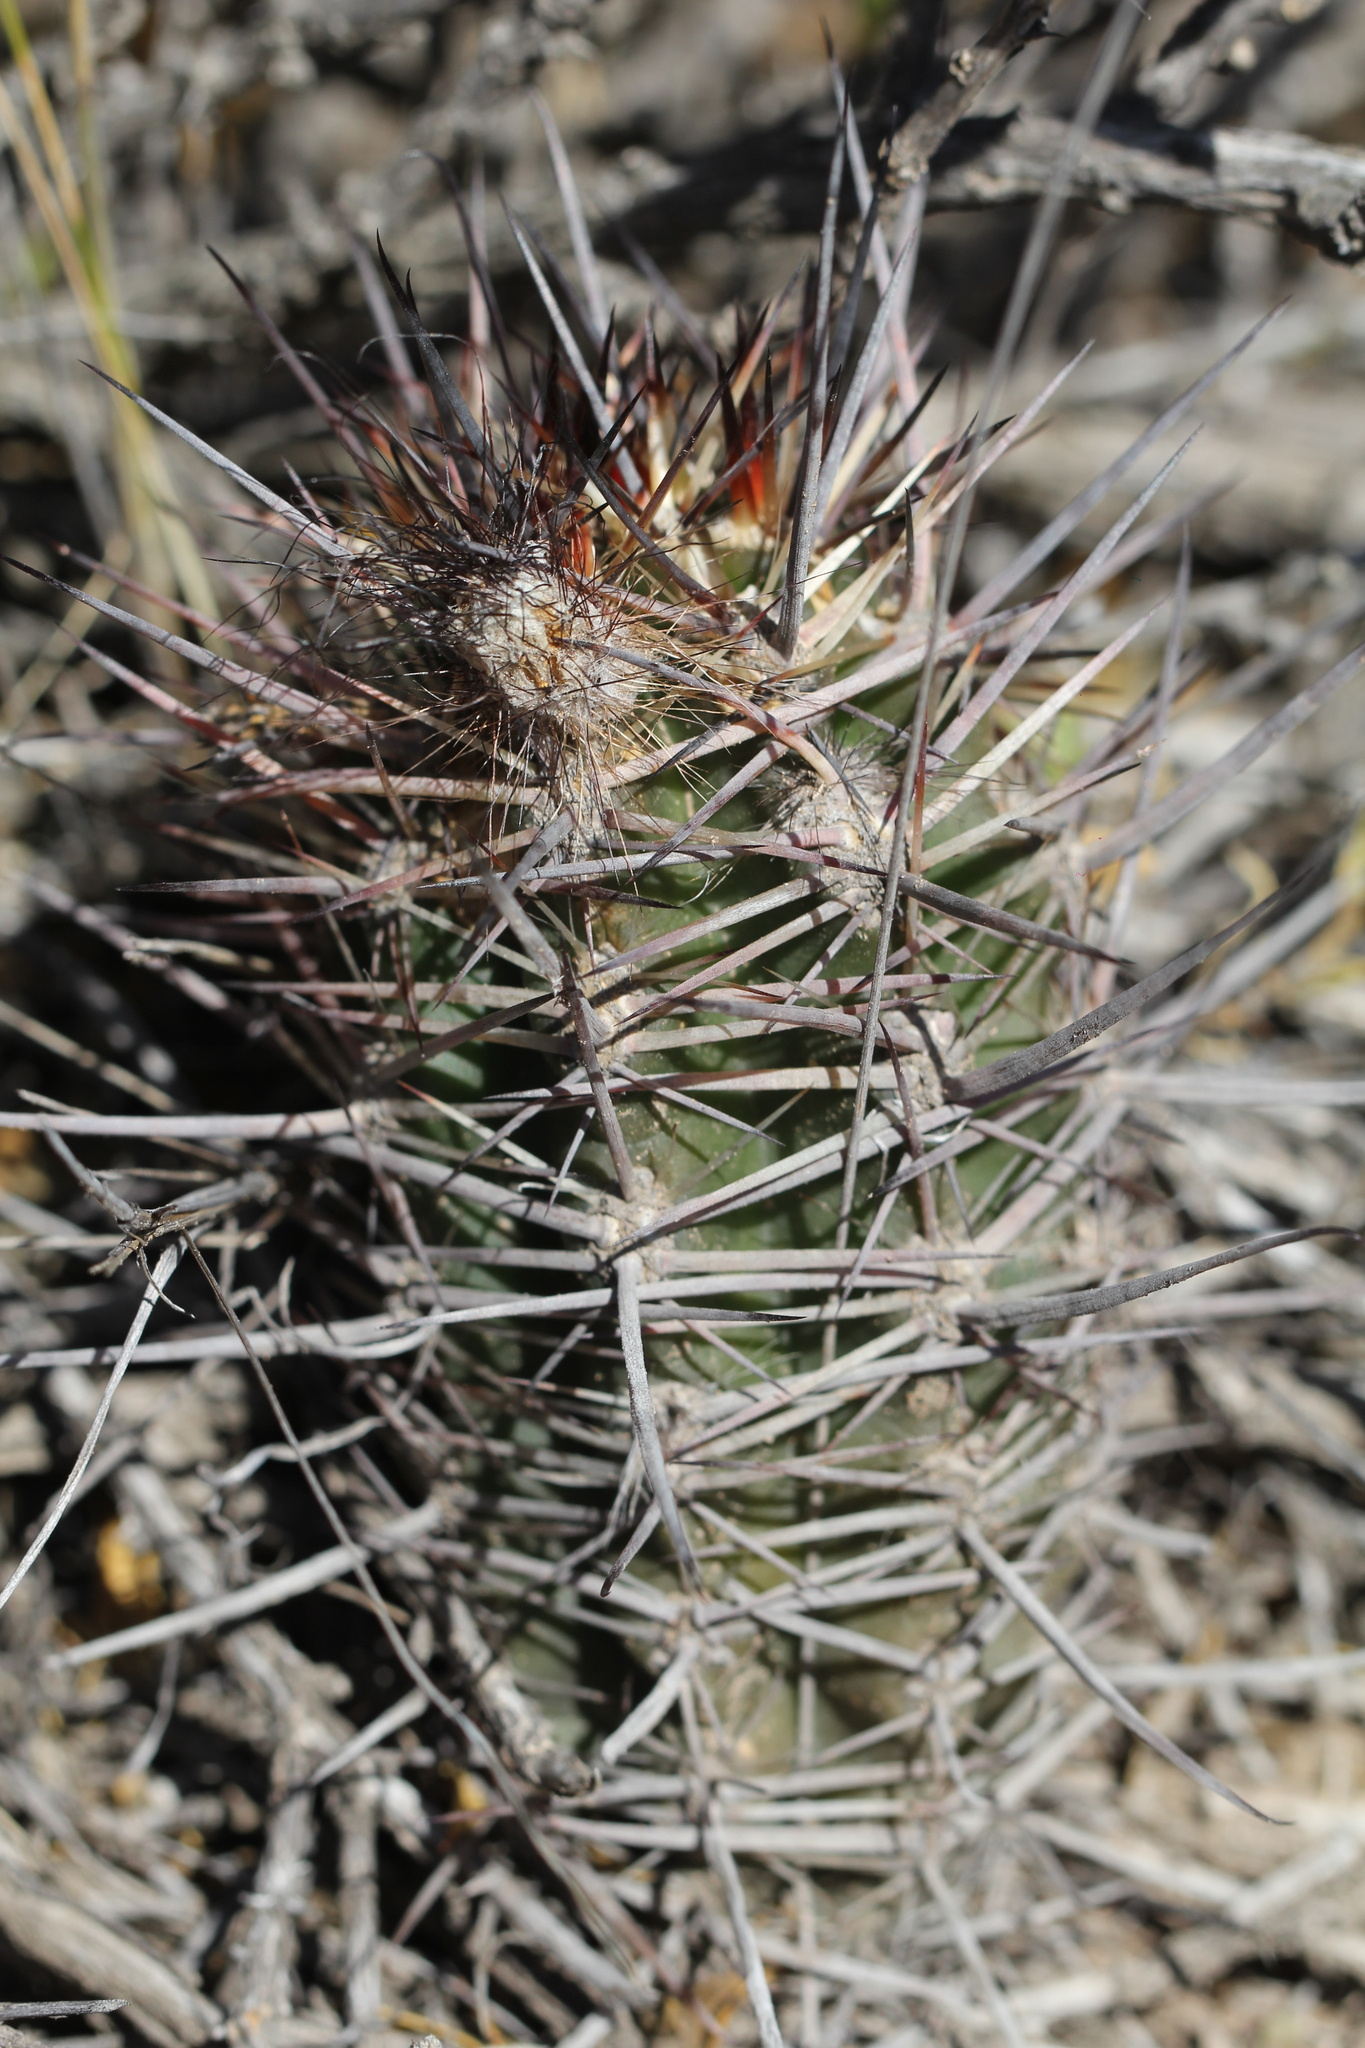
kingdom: Plantae
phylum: Tracheophyta
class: Magnoliopsida
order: Caryophyllales
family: Cactaceae
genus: Austrocactus
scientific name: Austrocactus bertinii
